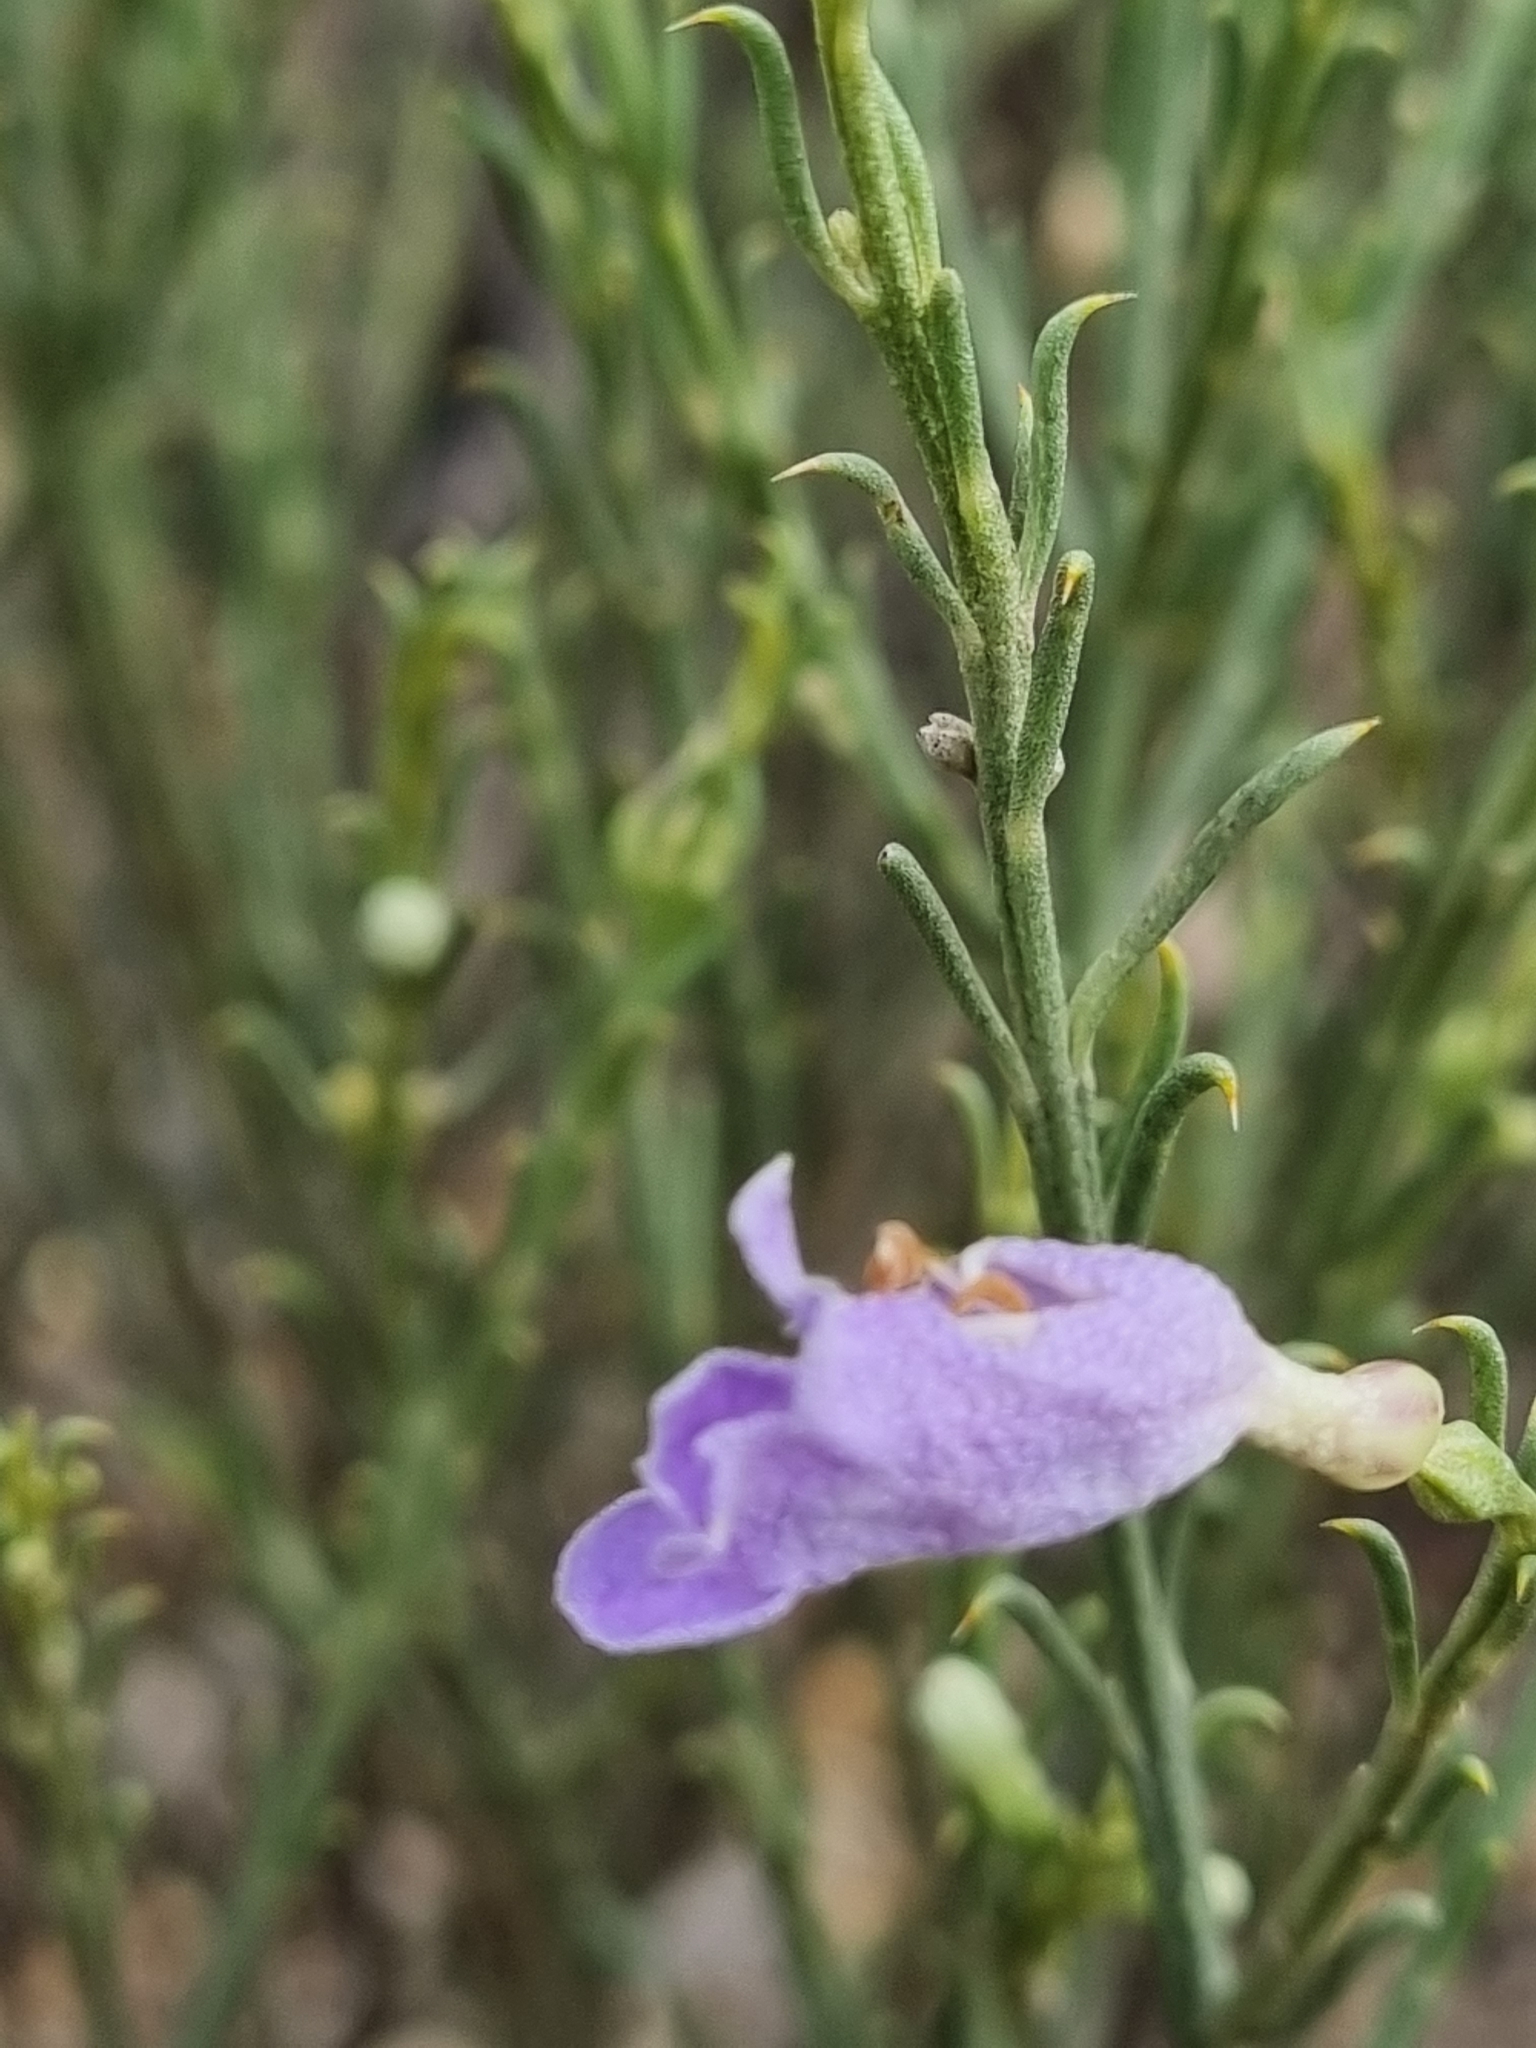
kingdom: Plantae
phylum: Tracheophyta
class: Magnoliopsida
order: Lamiales
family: Scrophulariaceae
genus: Eremophila
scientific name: Eremophila scoparia
